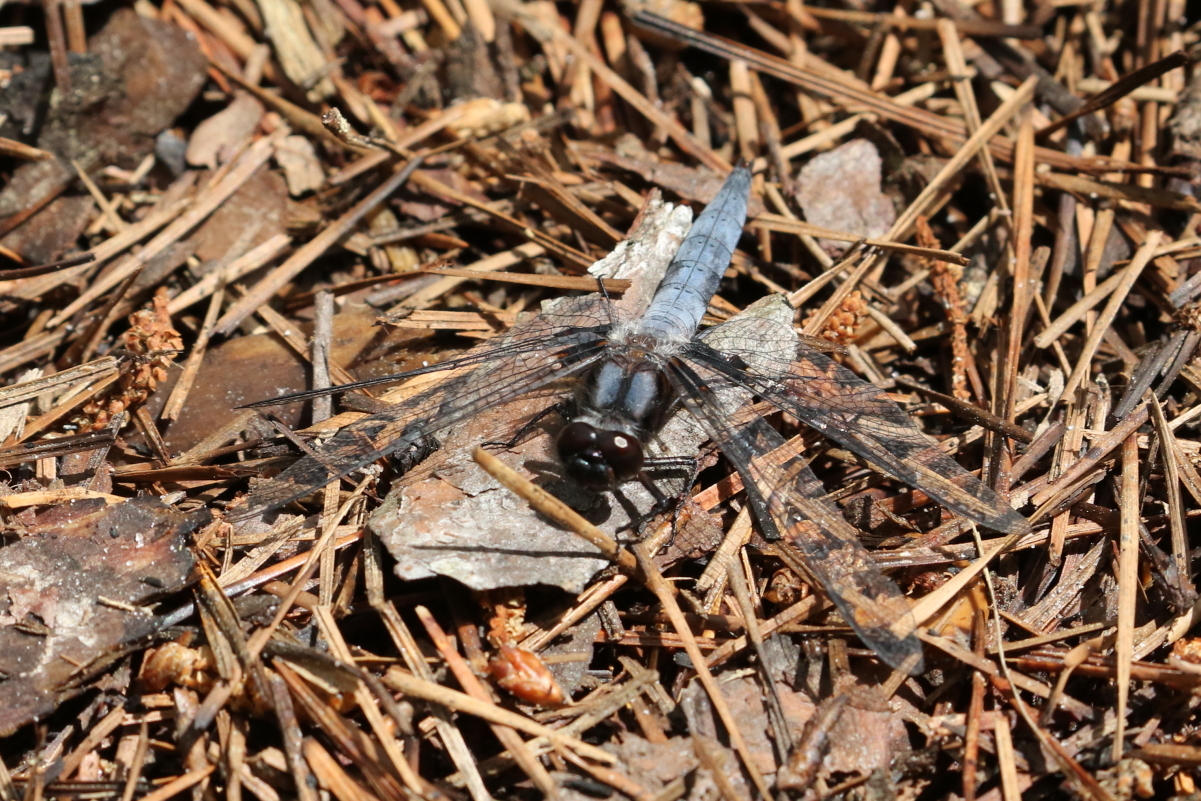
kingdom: Animalia
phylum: Arthropoda
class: Insecta
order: Odonata
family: Libellulidae
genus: Ladona
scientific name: Ladona deplanata
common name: Blue corporal
